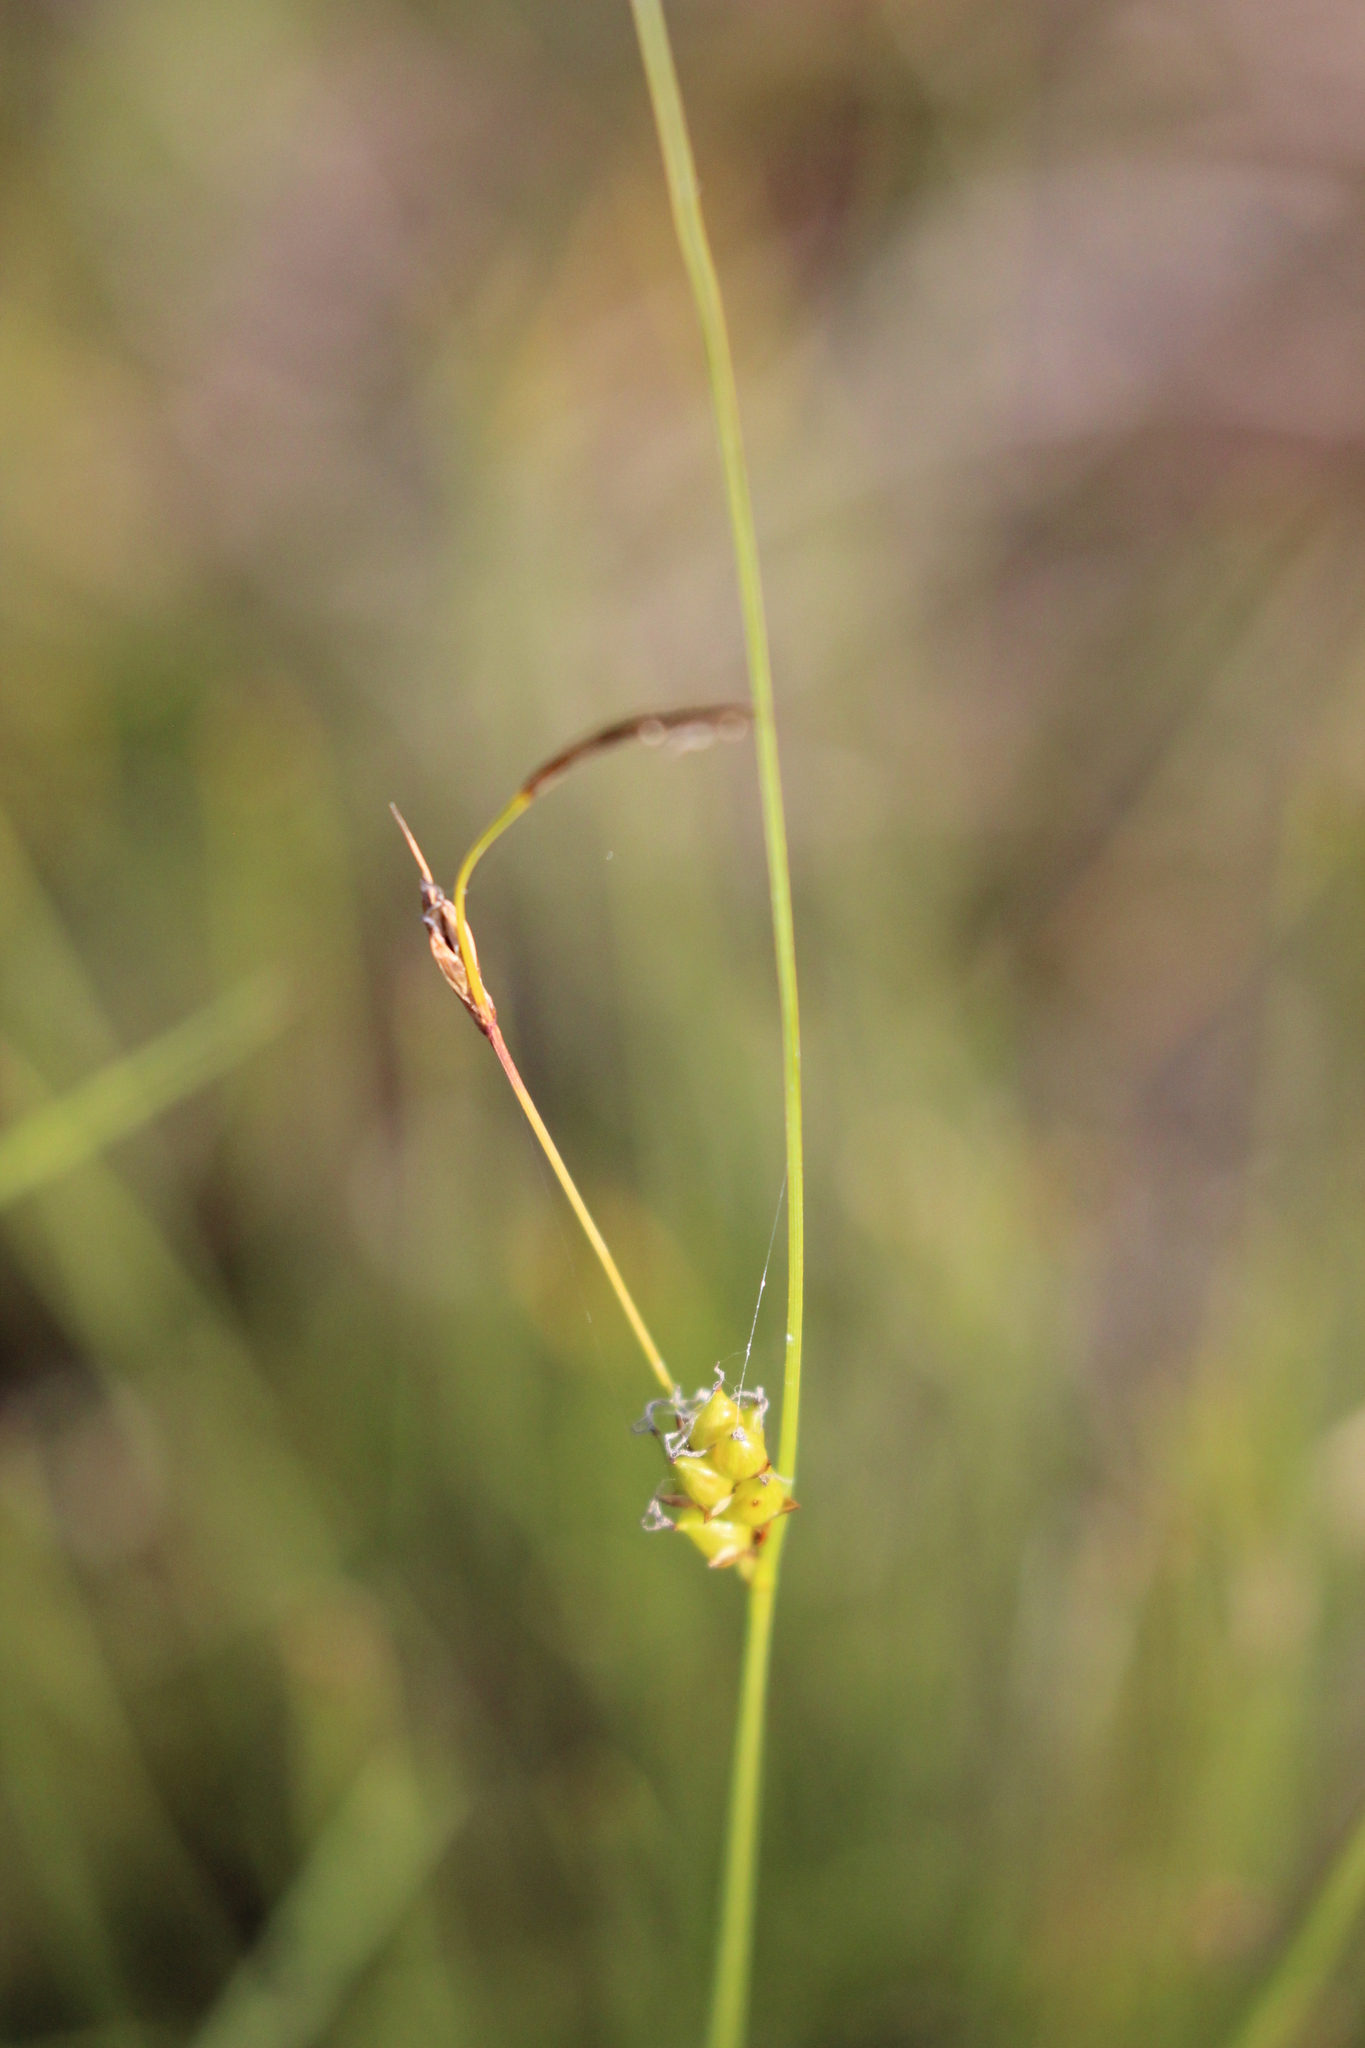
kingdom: Plantae
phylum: Tracheophyta
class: Liliopsida
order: Poales
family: Cyperaceae
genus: Carex
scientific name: Carex oligosperma
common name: Few-seed sedge
